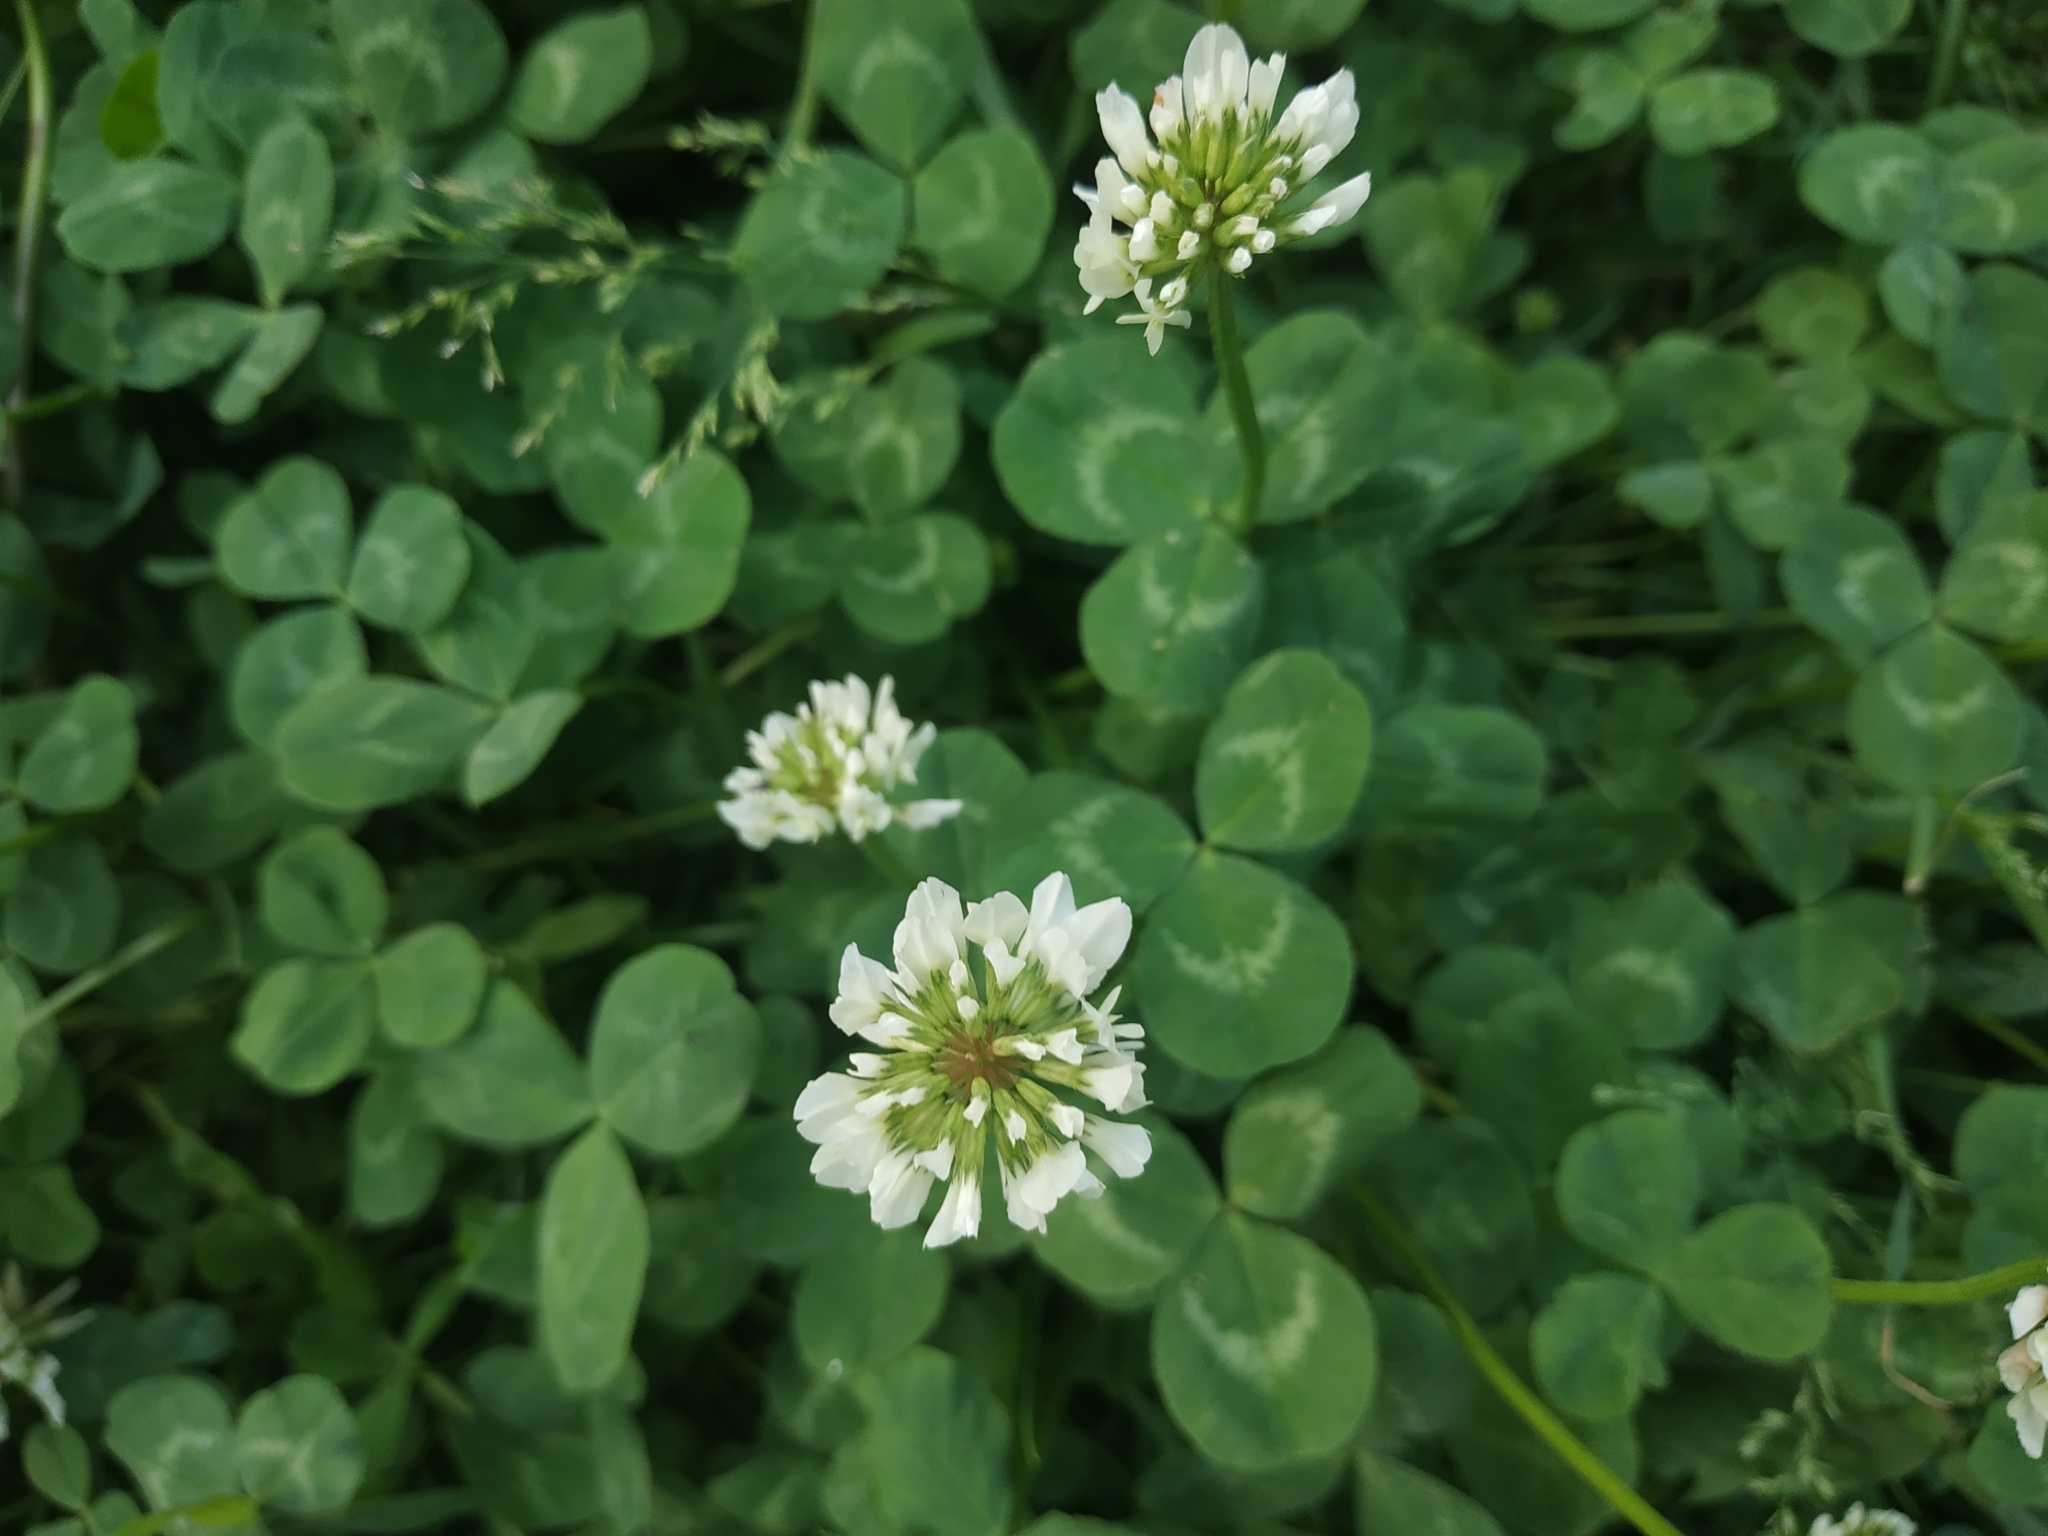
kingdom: Plantae
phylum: Tracheophyta
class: Magnoliopsida
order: Fabales
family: Fabaceae
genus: Trifolium
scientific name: Trifolium repens
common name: White clover
